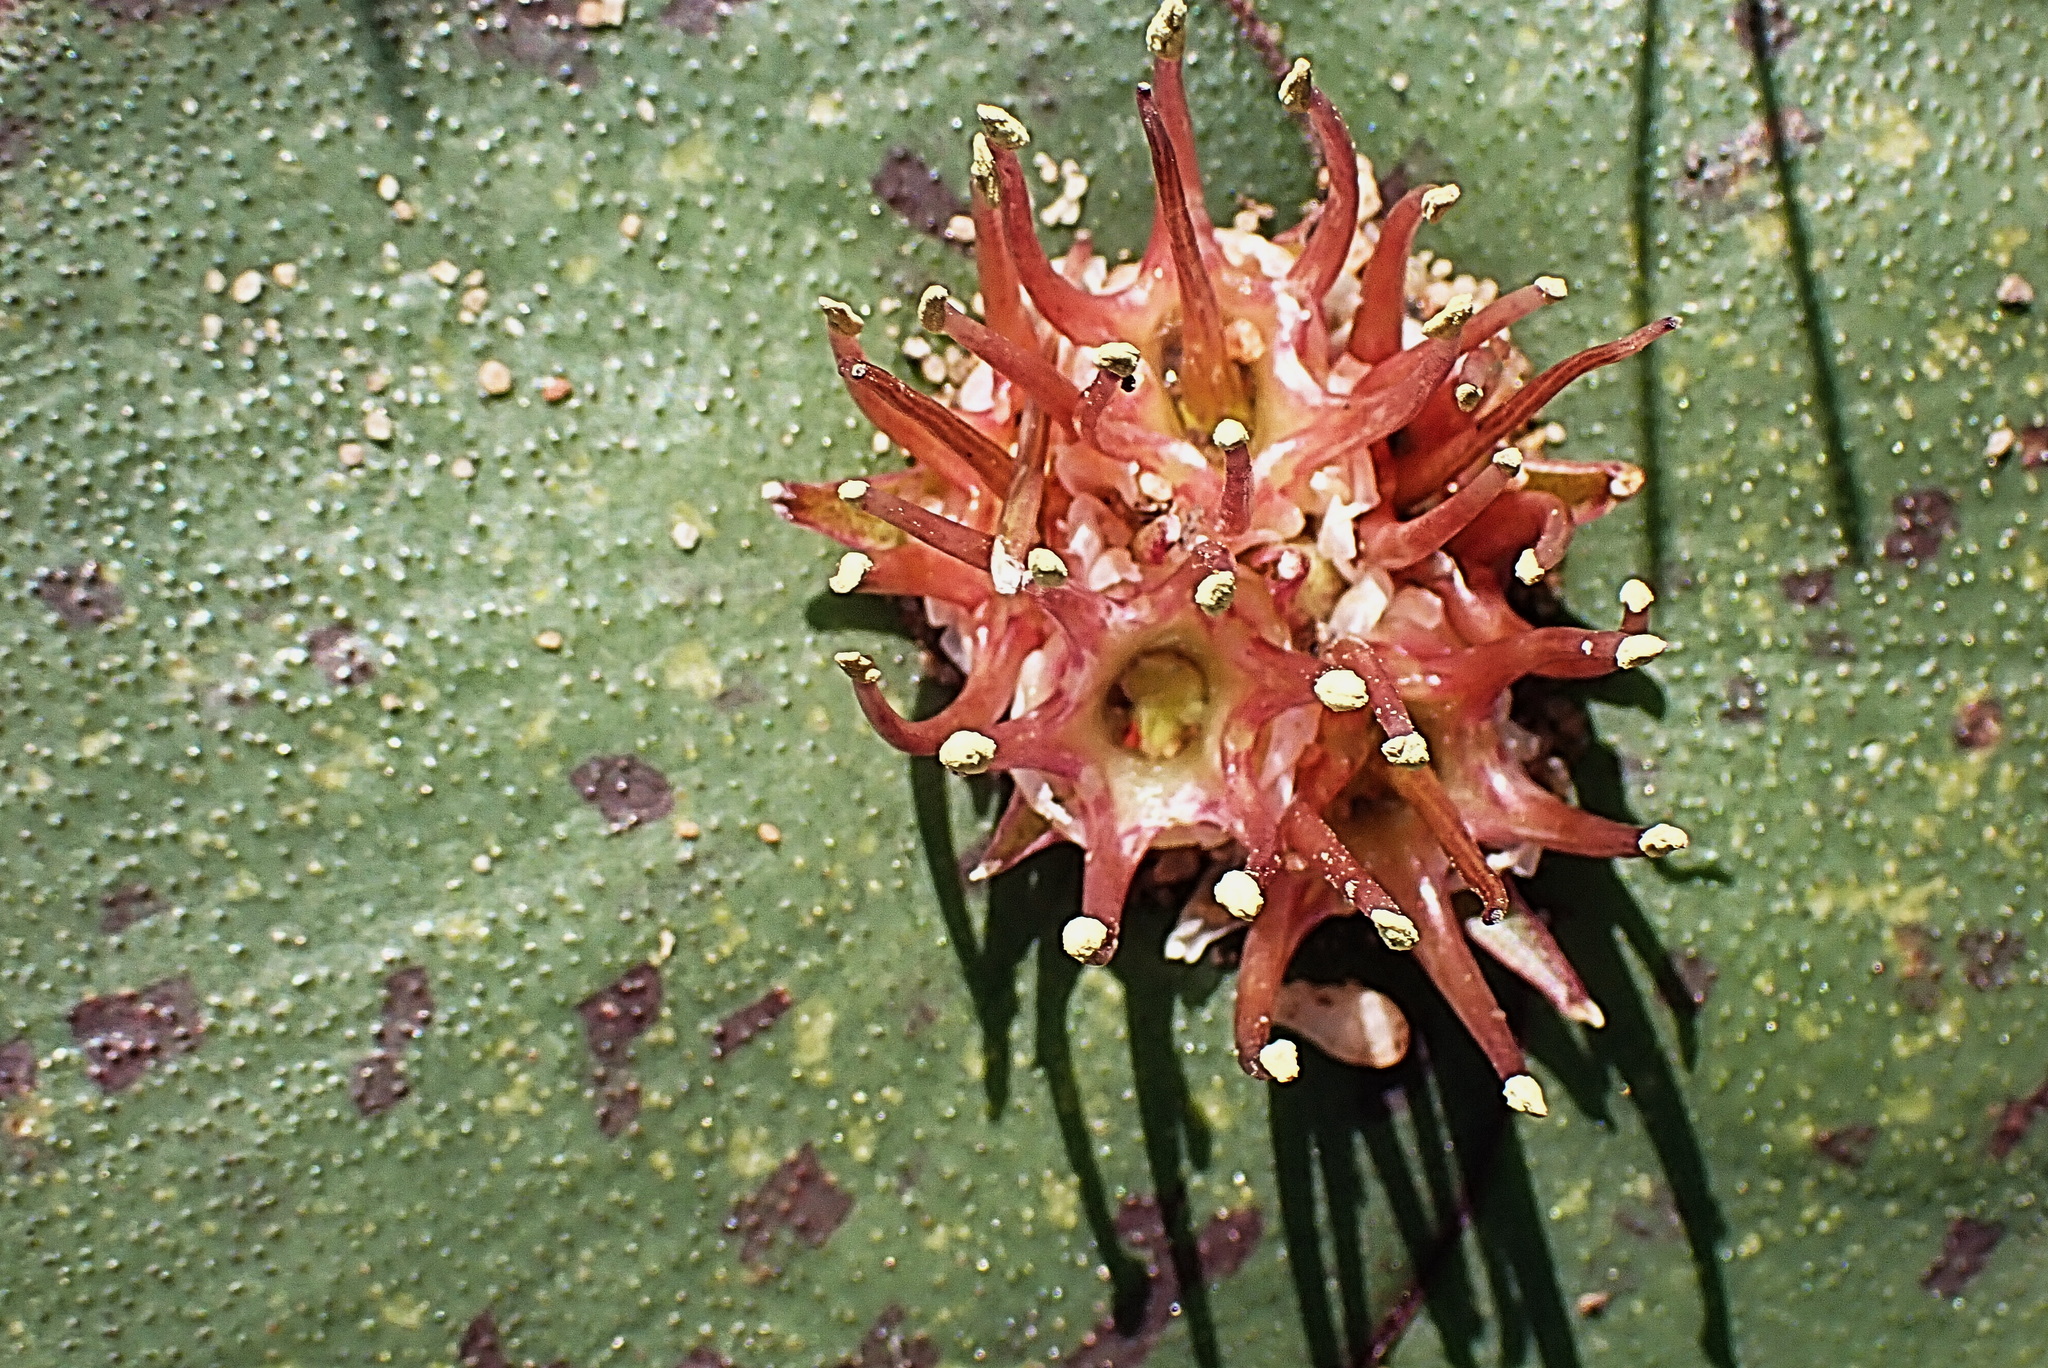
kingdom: Plantae
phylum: Tracheophyta
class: Liliopsida
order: Asparagales
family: Asparagaceae
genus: Massonia
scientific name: Massonia depressa
